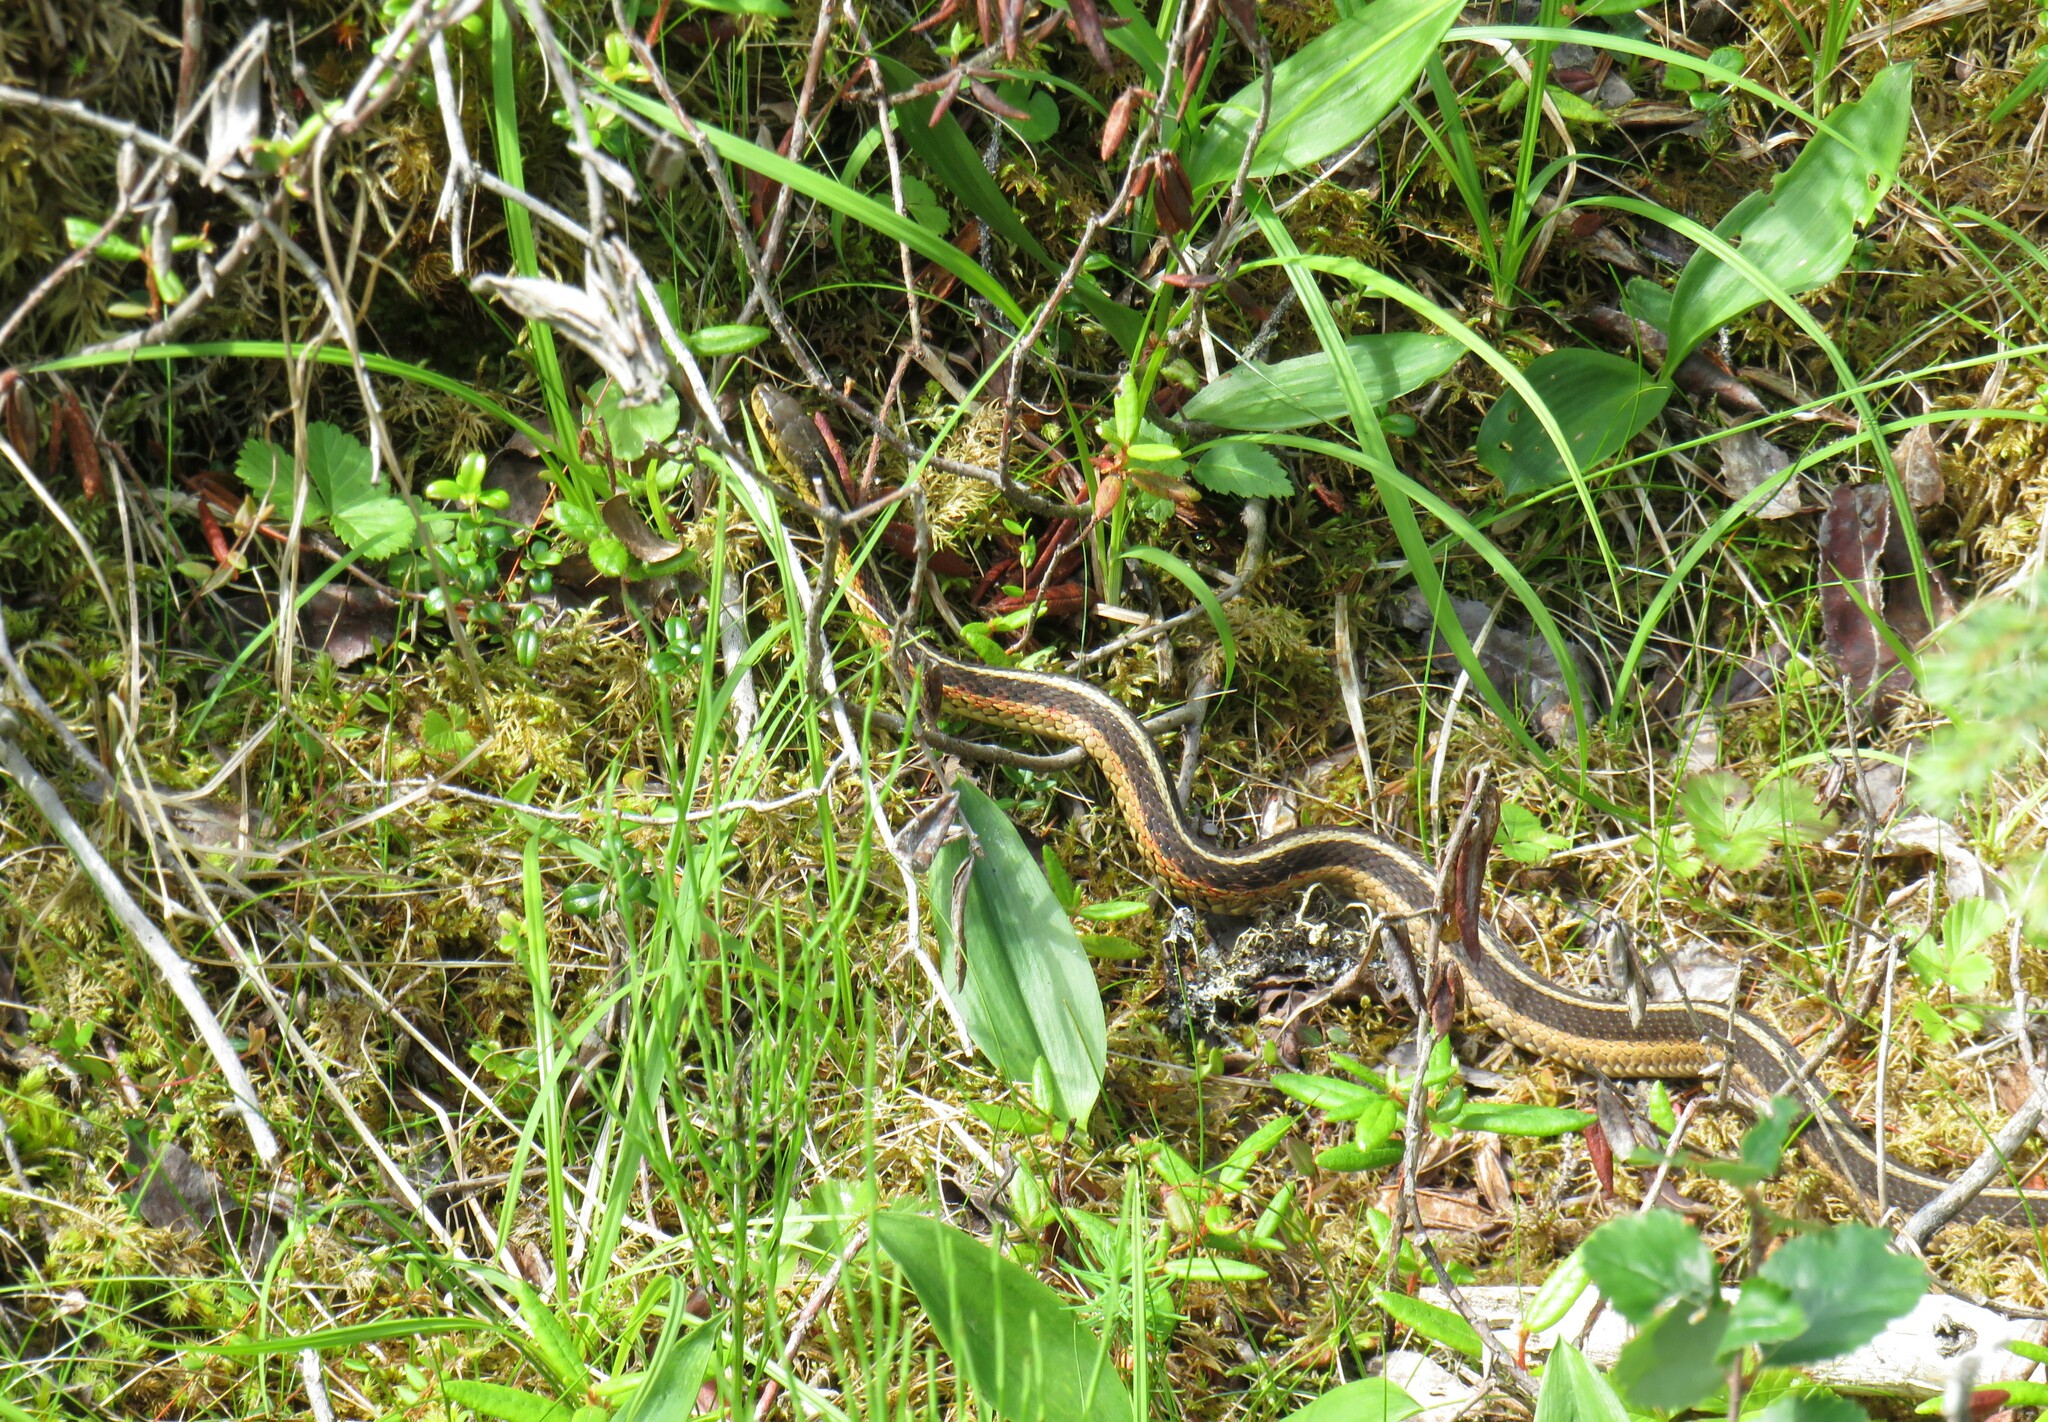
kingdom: Animalia
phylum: Chordata
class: Squamata
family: Colubridae
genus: Thamnophis
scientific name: Thamnophis sirtalis
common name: Common garter snake
